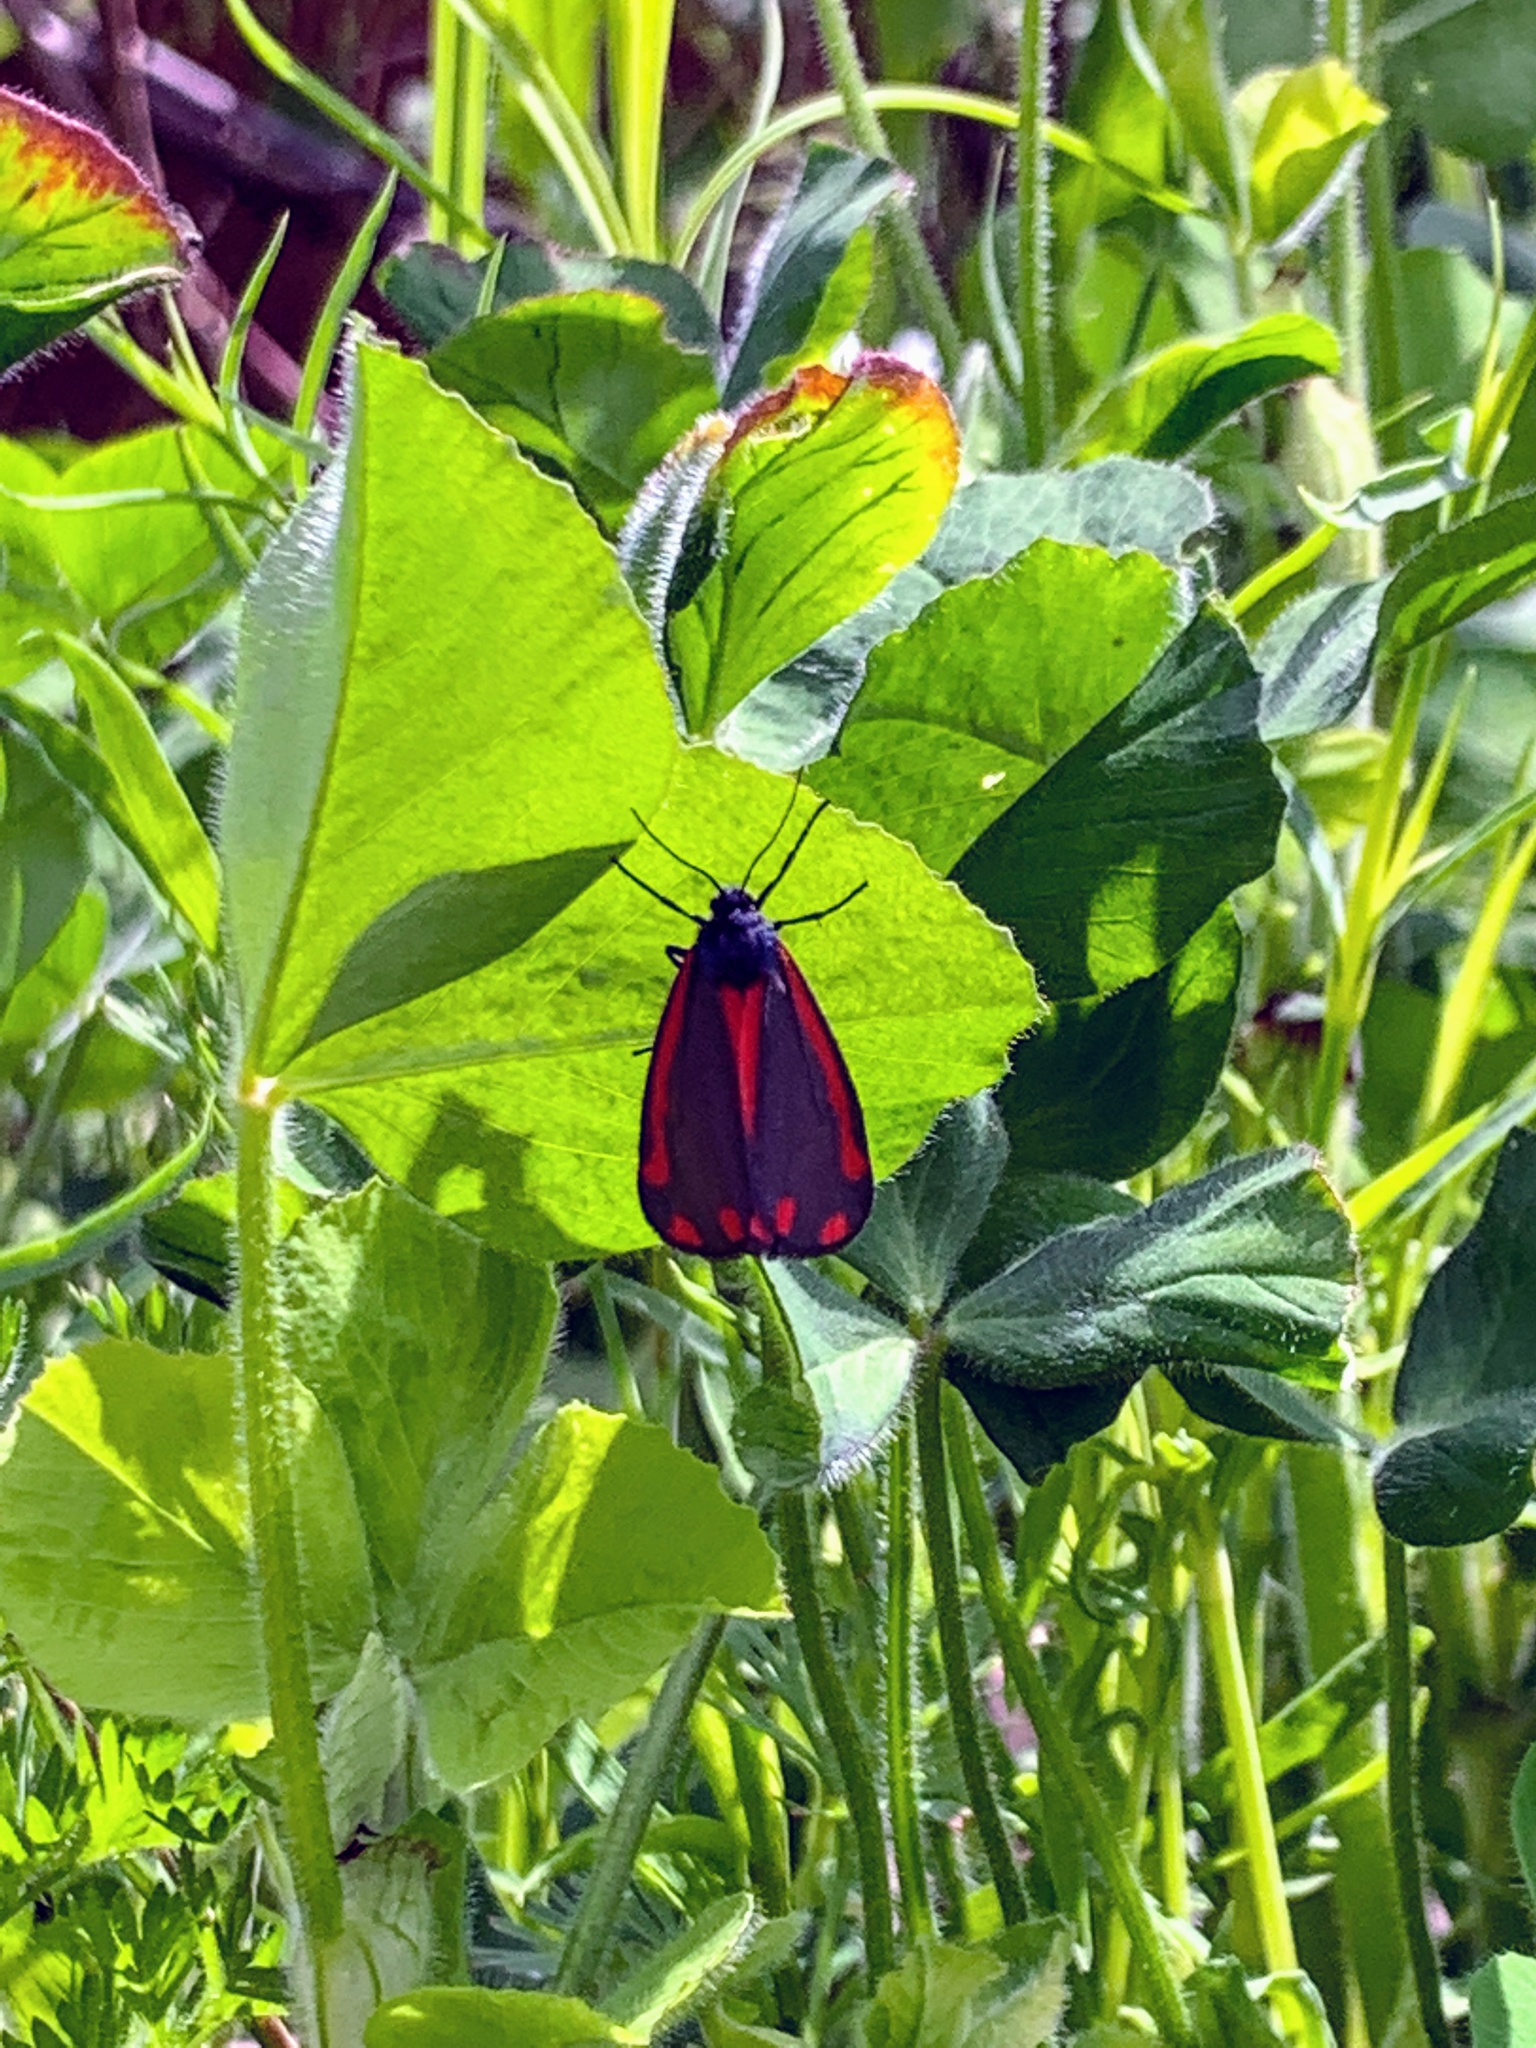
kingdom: Animalia
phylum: Arthropoda
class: Insecta
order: Lepidoptera
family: Erebidae
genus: Tyria
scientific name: Tyria jacobaeae
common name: Cinnabar
